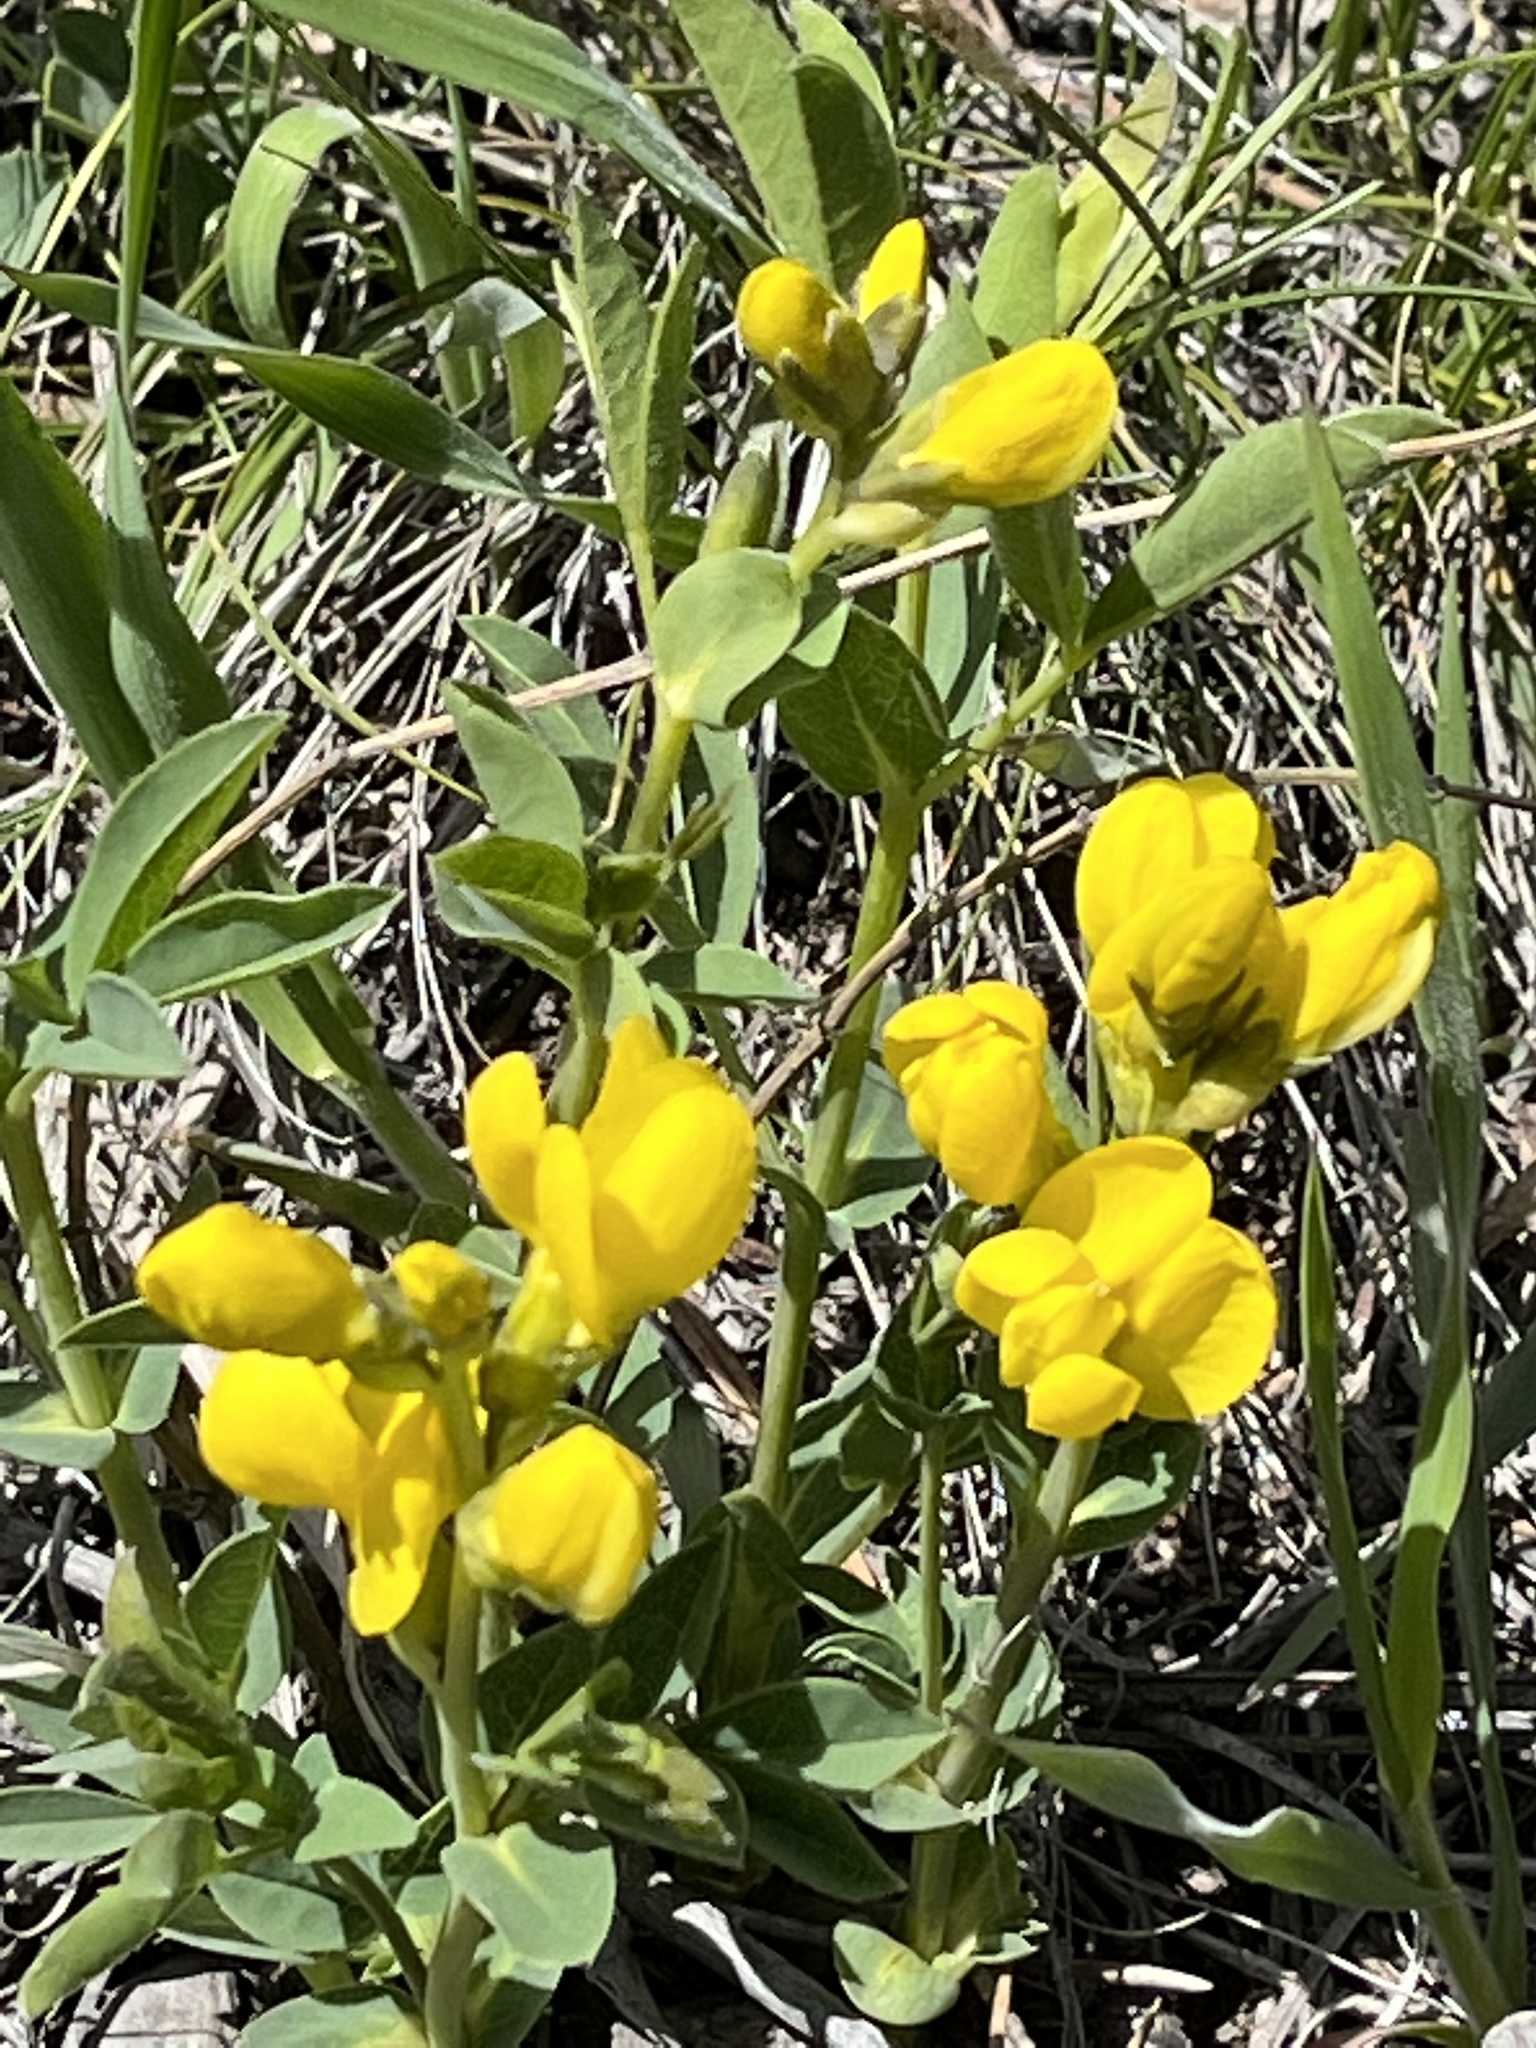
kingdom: Plantae
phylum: Tracheophyta
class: Magnoliopsida
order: Fabales
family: Fabaceae
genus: Thermopsis
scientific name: Thermopsis rhombifolia
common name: Circle-pod-pea
